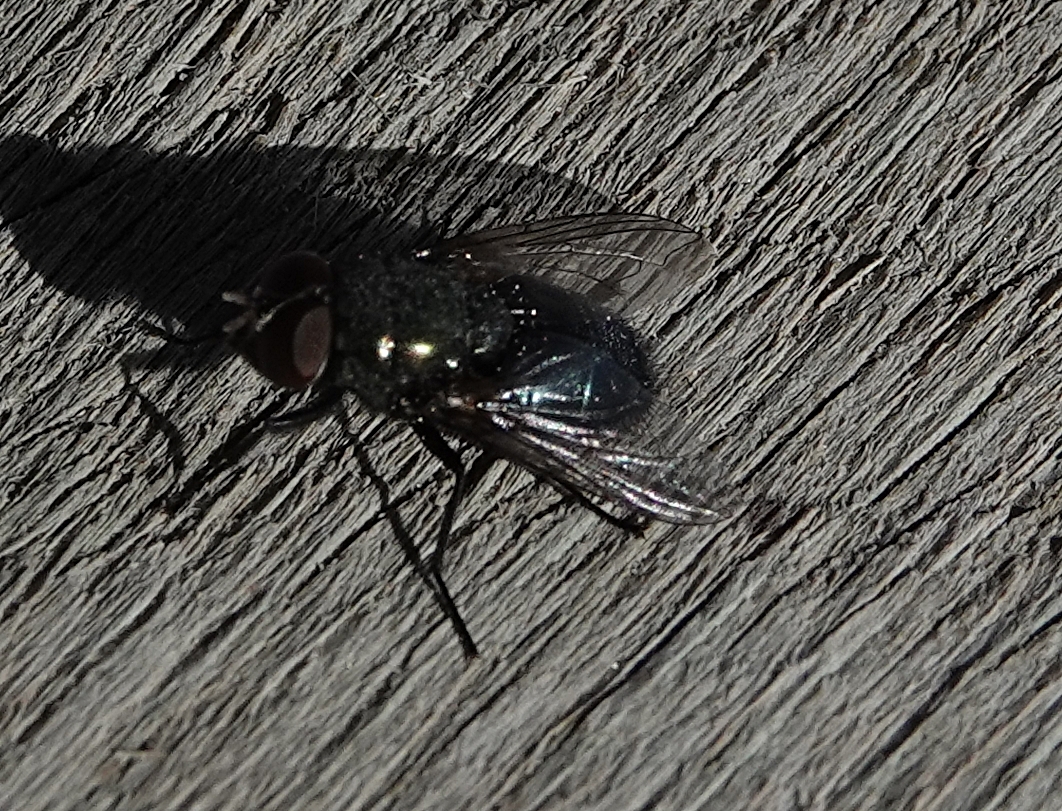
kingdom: Animalia
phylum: Arthropoda
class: Insecta
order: Diptera
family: Calliphoridae
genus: Phormia
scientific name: Phormia regina
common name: Black blow fly
